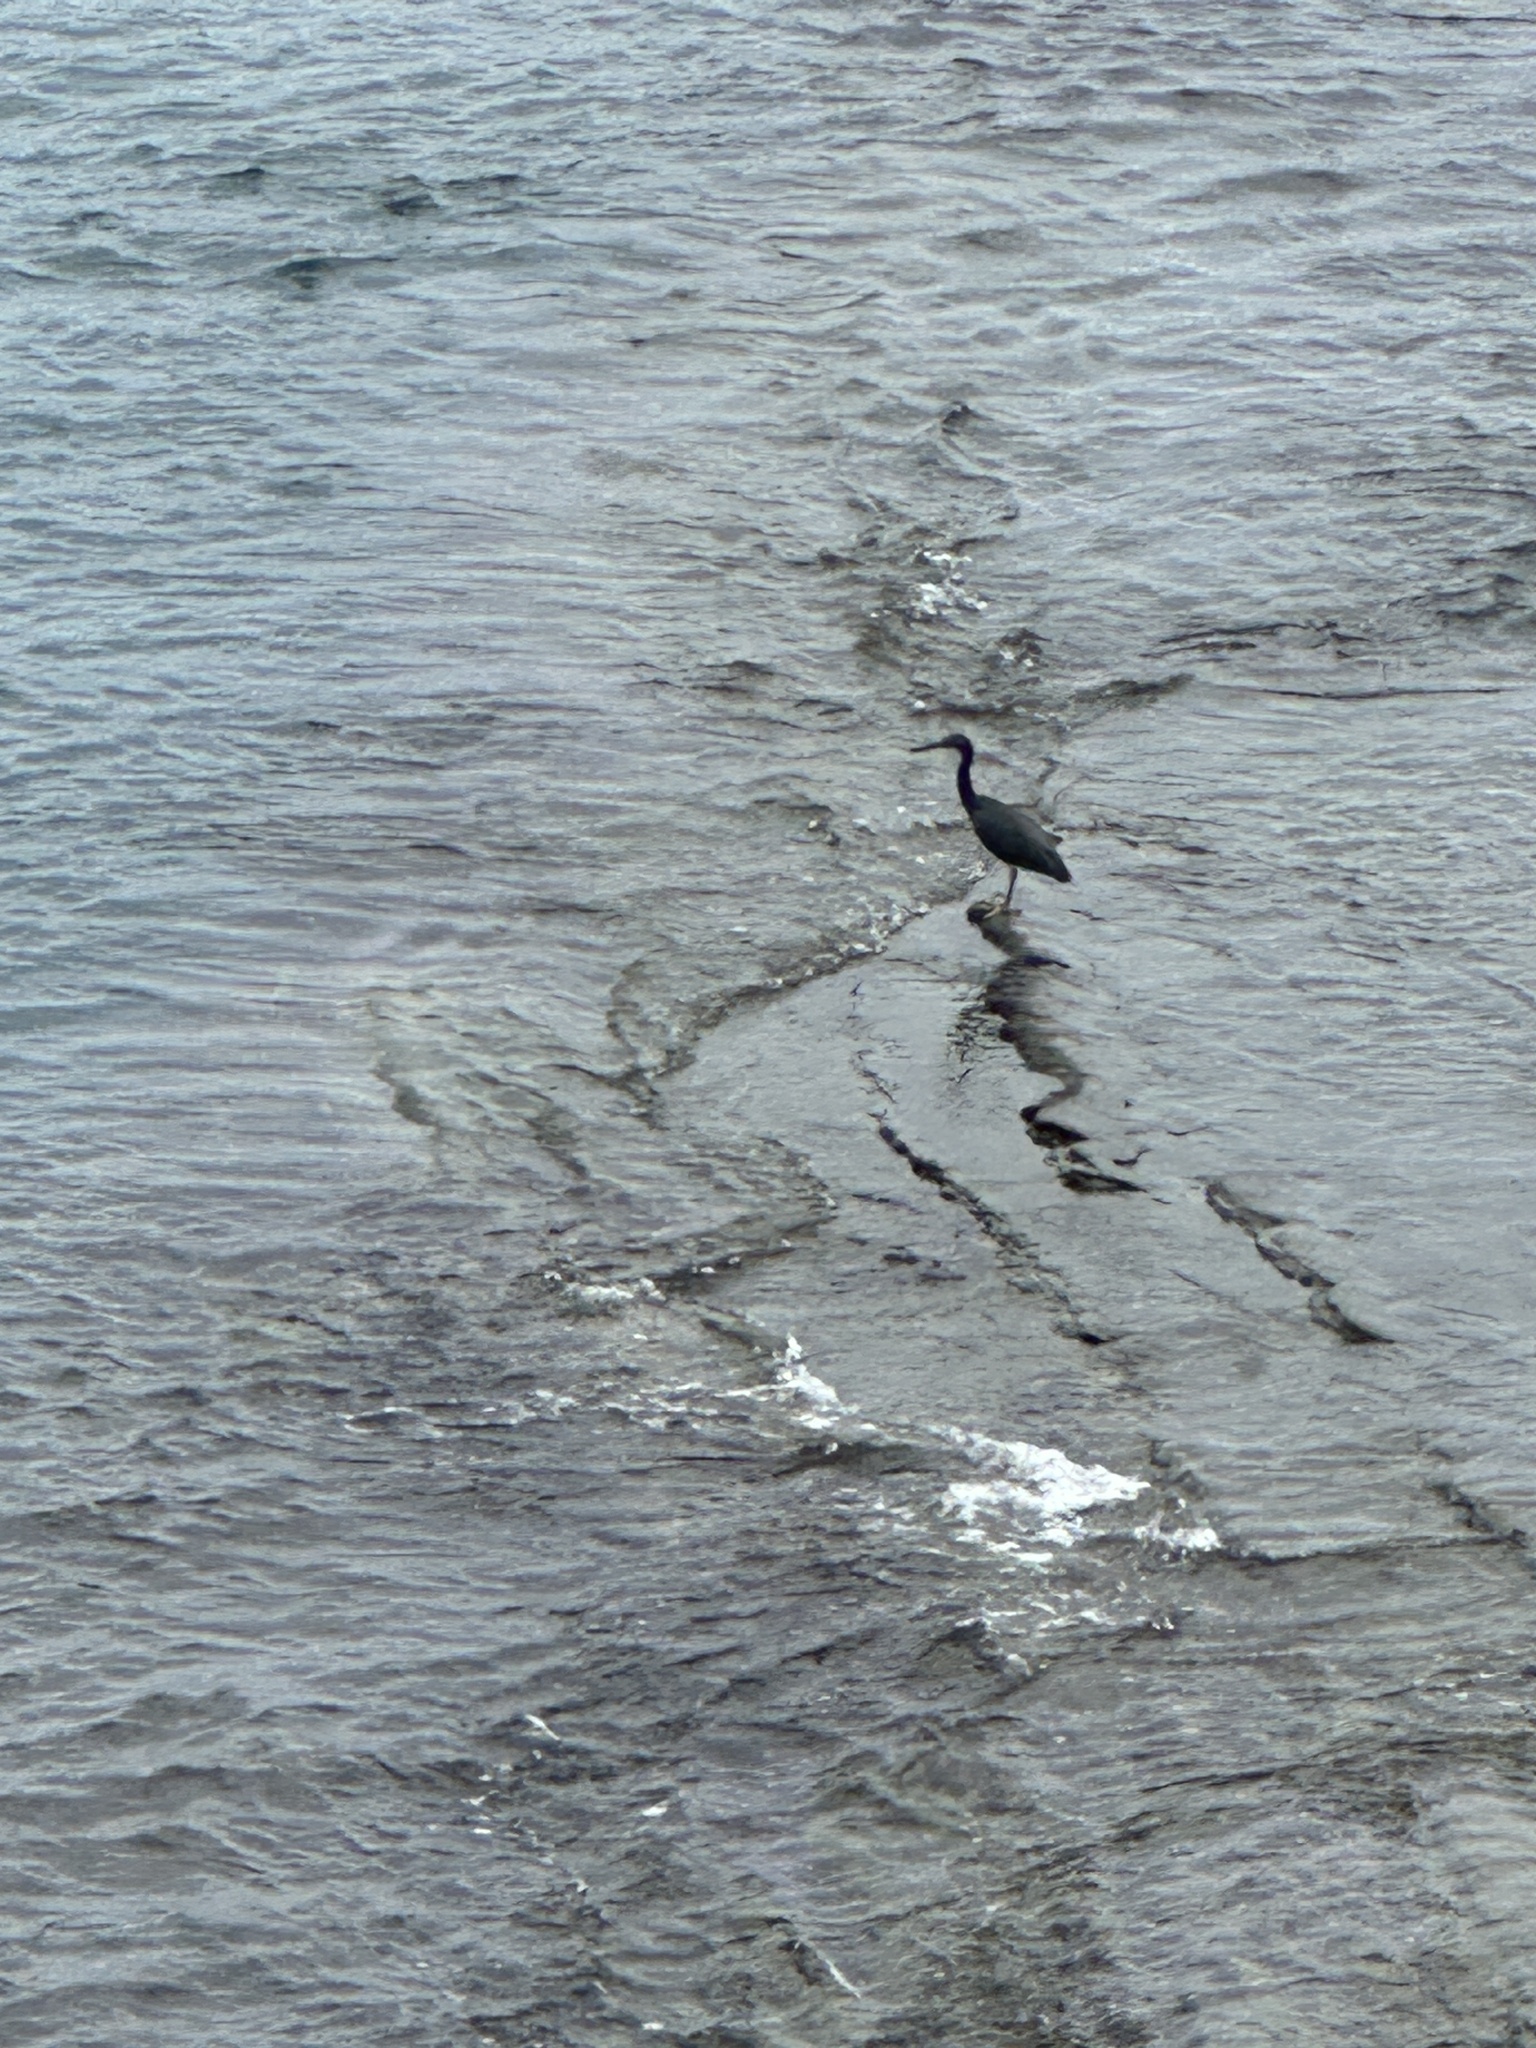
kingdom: Animalia
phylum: Chordata
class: Aves
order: Pelecaniformes
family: Ardeidae
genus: Egretta
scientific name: Egretta sacra
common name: Pacific reef heron
